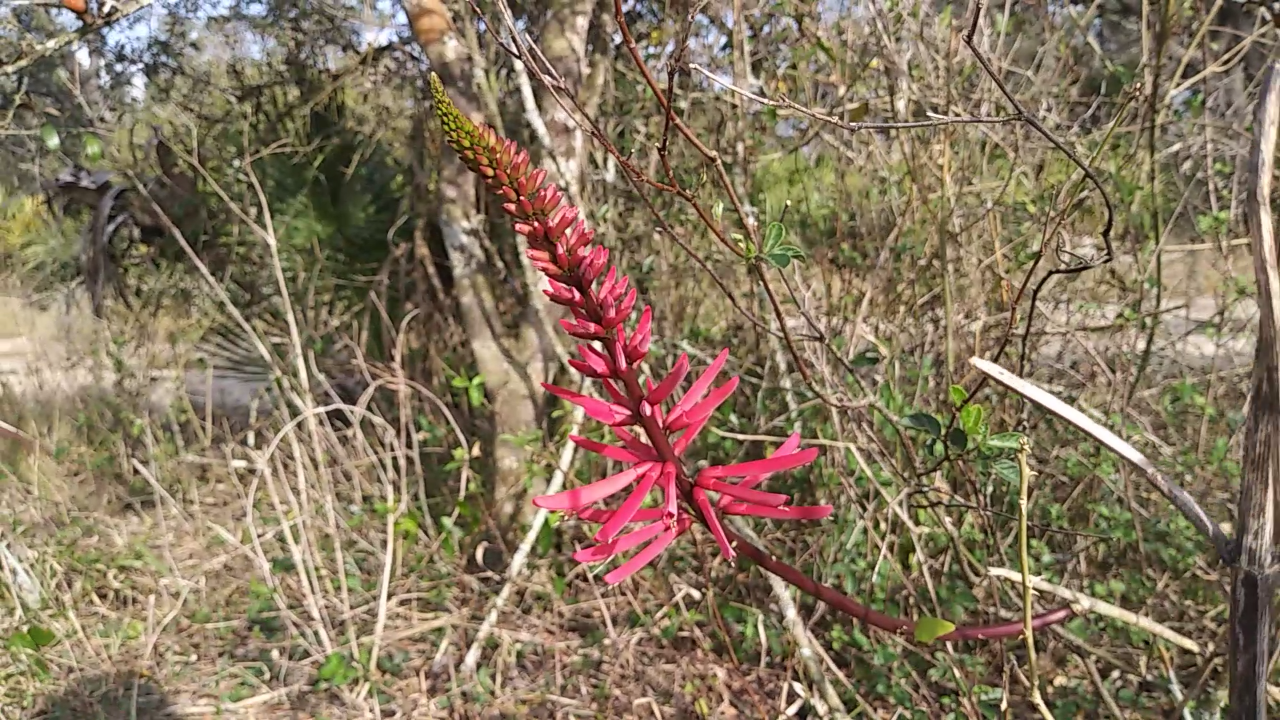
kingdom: Plantae
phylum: Tracheophyta
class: Magnoliopsida
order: Fabales
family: Fabaceae
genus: Erythrina
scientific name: Erythrina herbacea
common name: Coral-bean
